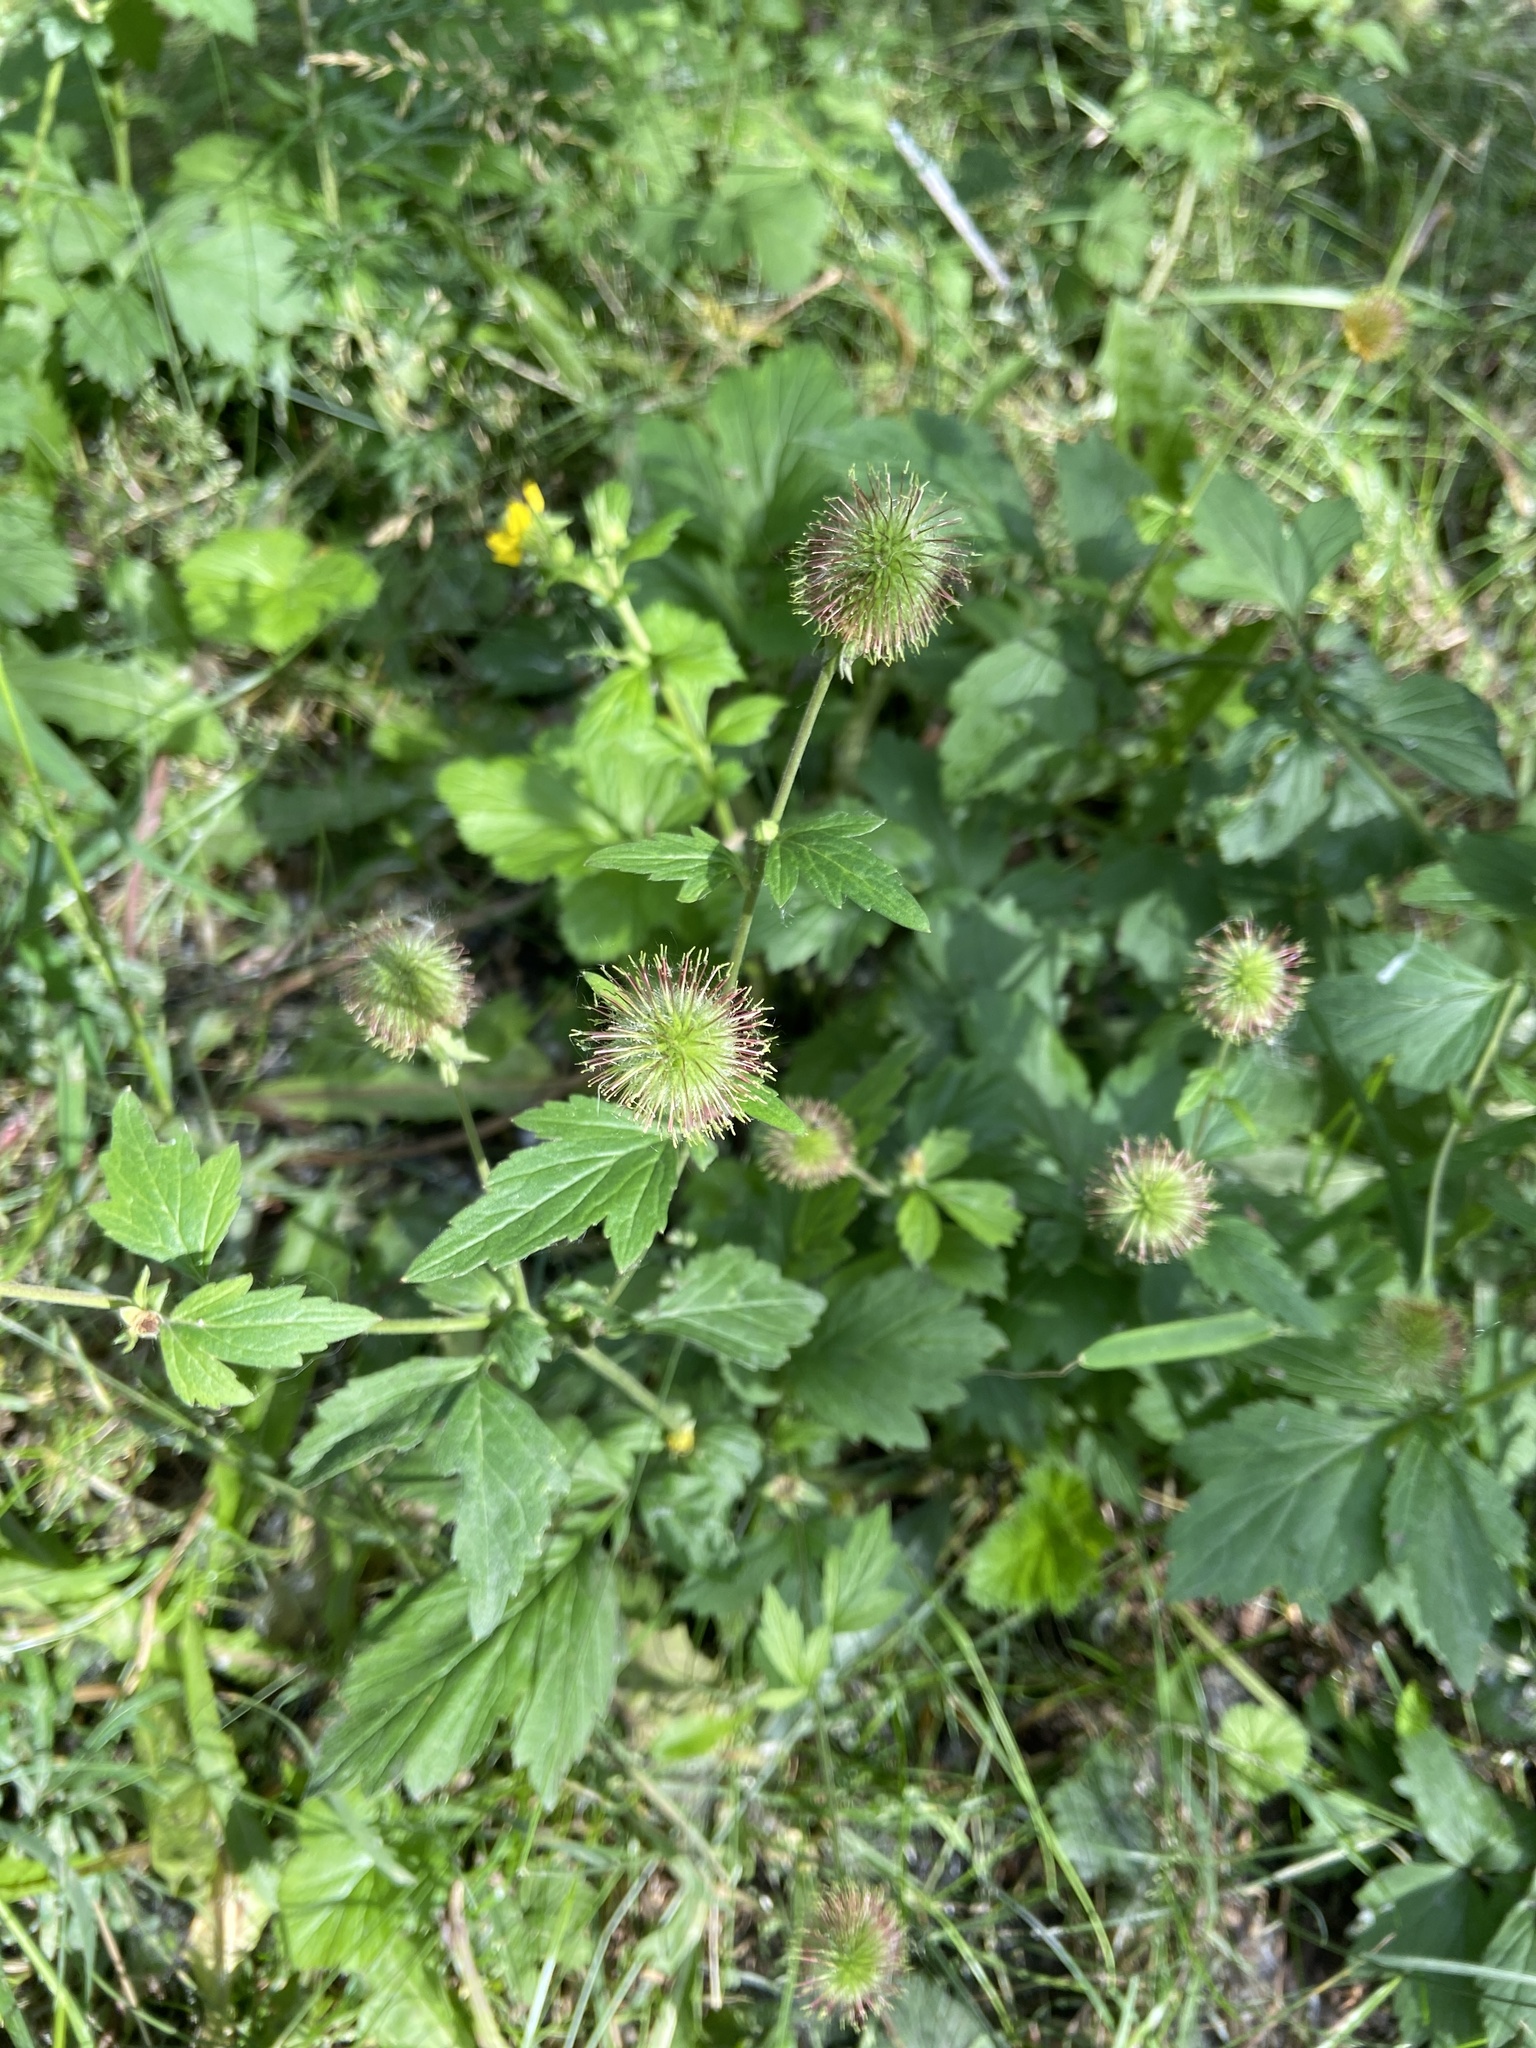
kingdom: Plantae
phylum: Tracheophyta
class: Magnoliopsida
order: Rosales
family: Rosaceae
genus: Geum
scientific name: Geum aleppicum
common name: Yellow avens
